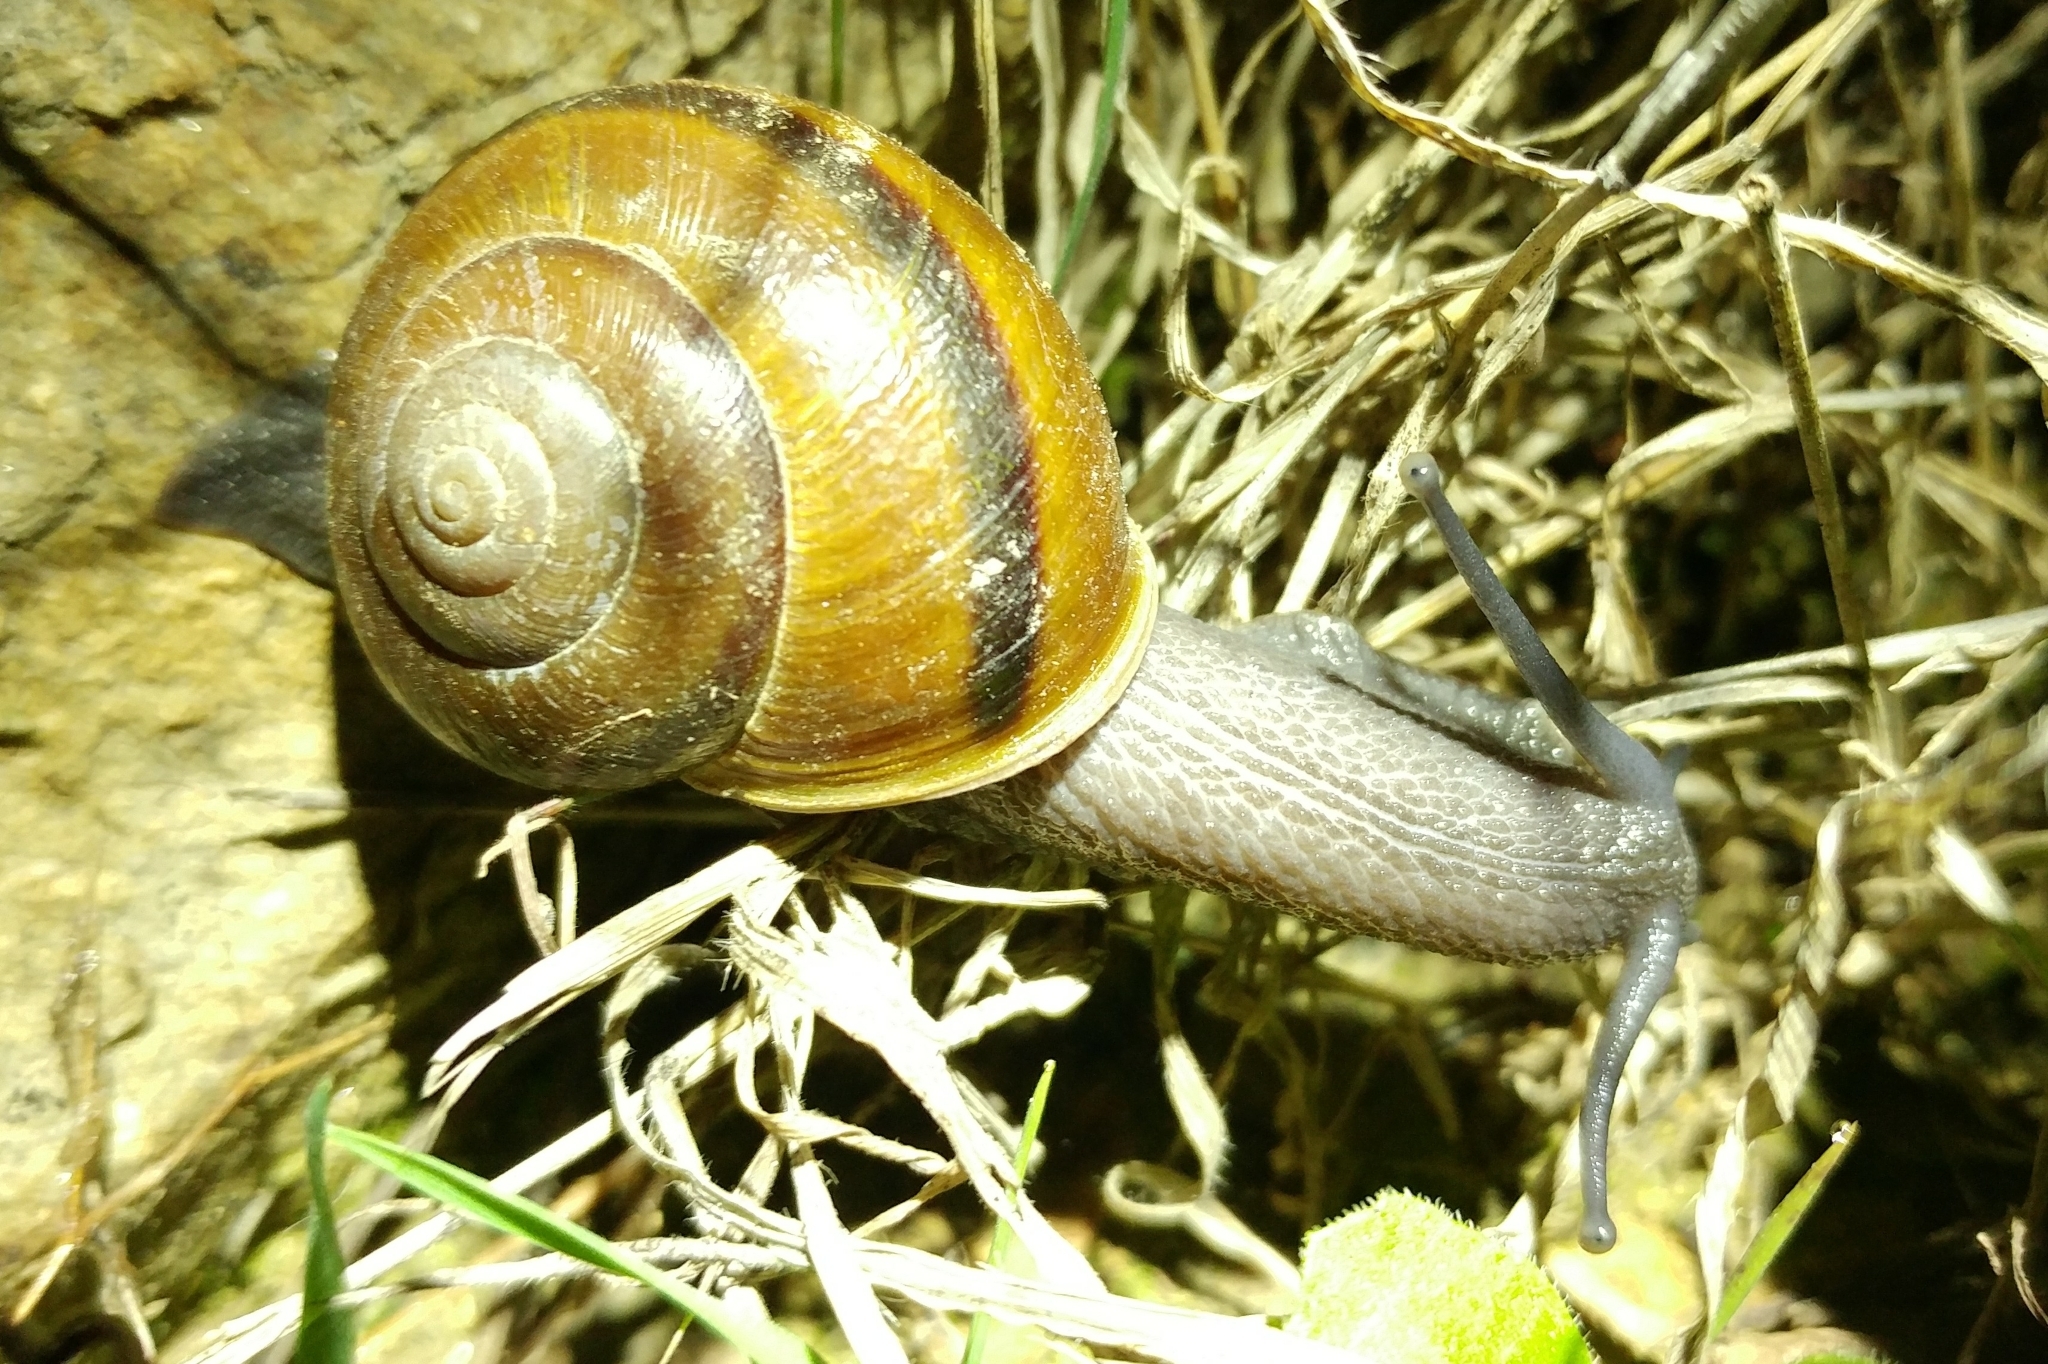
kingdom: Animalia
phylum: Mollusca
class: Gastropoda
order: Stylommatophora
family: Xanthonychidae
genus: Helminthoglypta
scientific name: Helminthoglypta tudiculata
